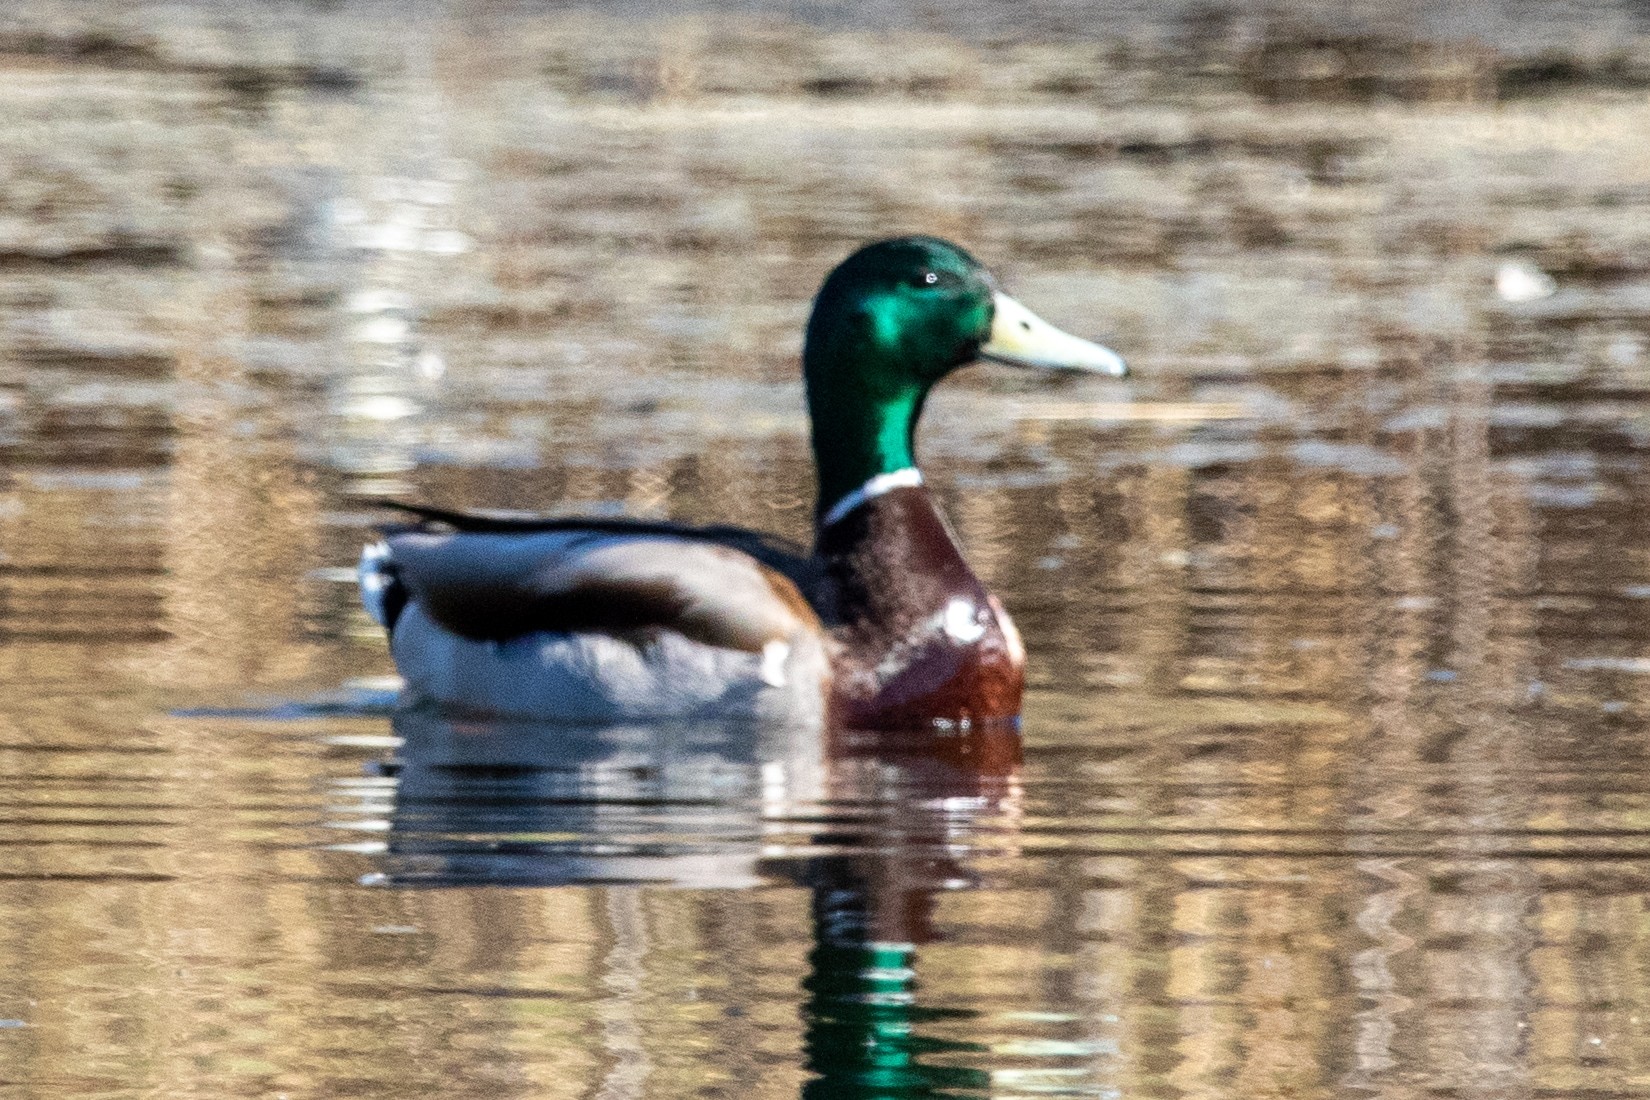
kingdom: Animalia
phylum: Chordata
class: Aves
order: Anseriformes
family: Anatidae
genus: Anas
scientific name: Anas platyrhynchos
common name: Mallard
